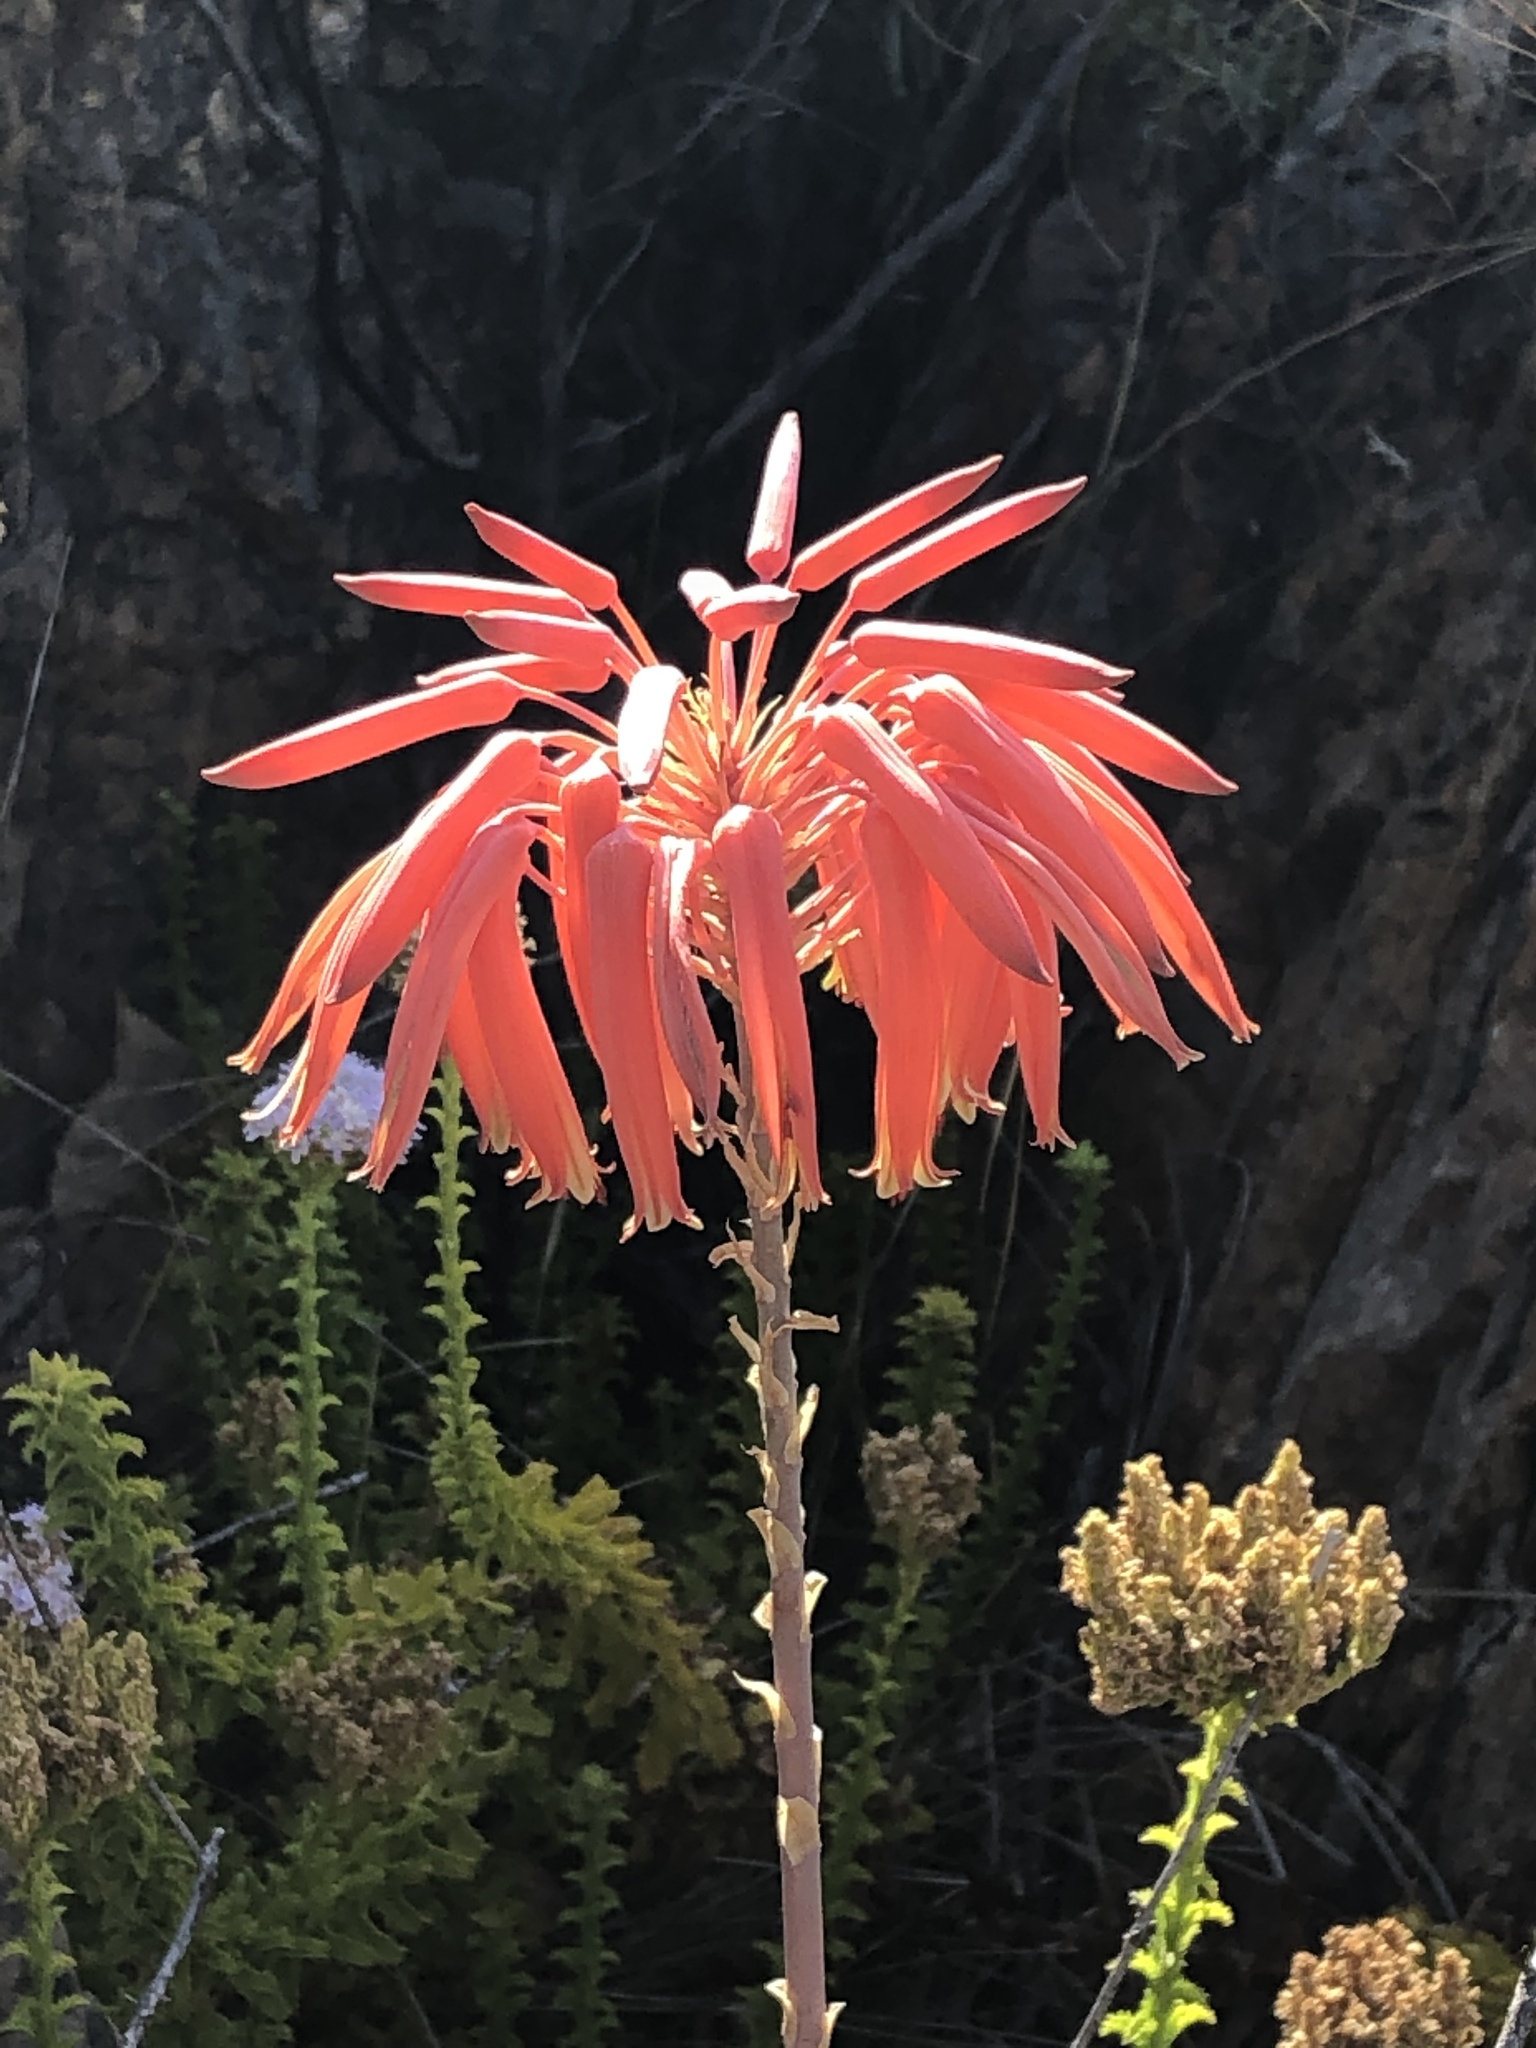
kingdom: Plantae
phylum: Tracheophyta
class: Liliopsida
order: Asparagales
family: Asphodelaceae
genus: Aloe
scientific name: Aloe perfoliata
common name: Mitra aloe
